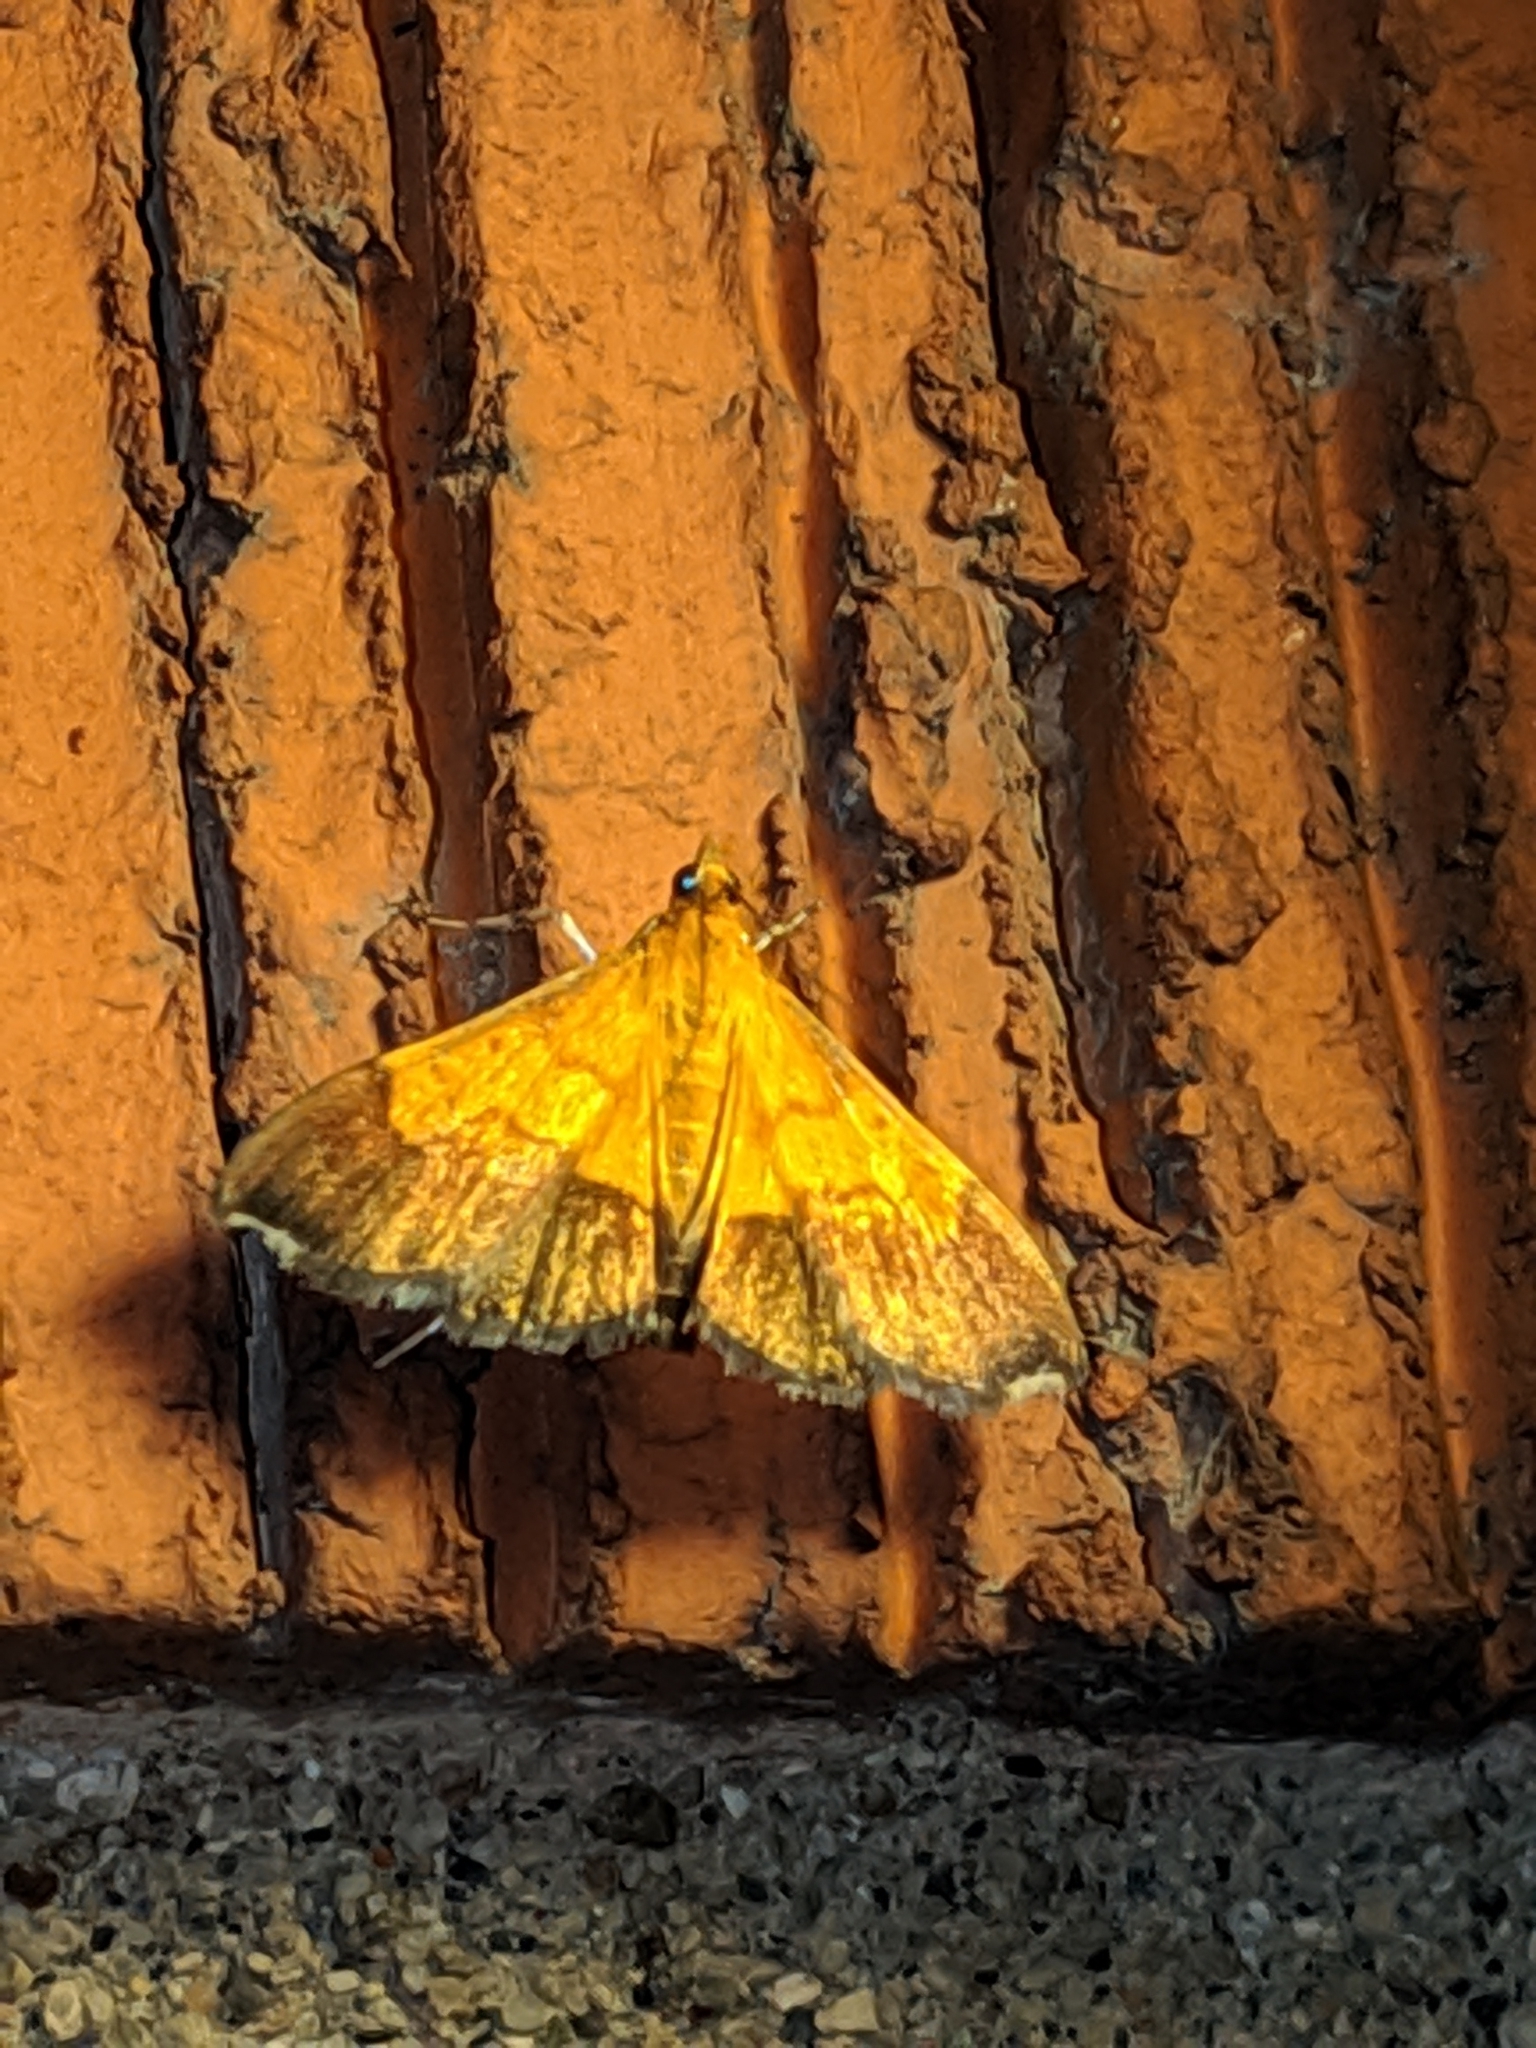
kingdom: Animalia
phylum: Arthropoda
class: Insecta
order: Lepidoptera
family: Crambidae
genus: Pyrausta
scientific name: Pyrausta bicoloralis
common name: Bicolored pyrausta moth
